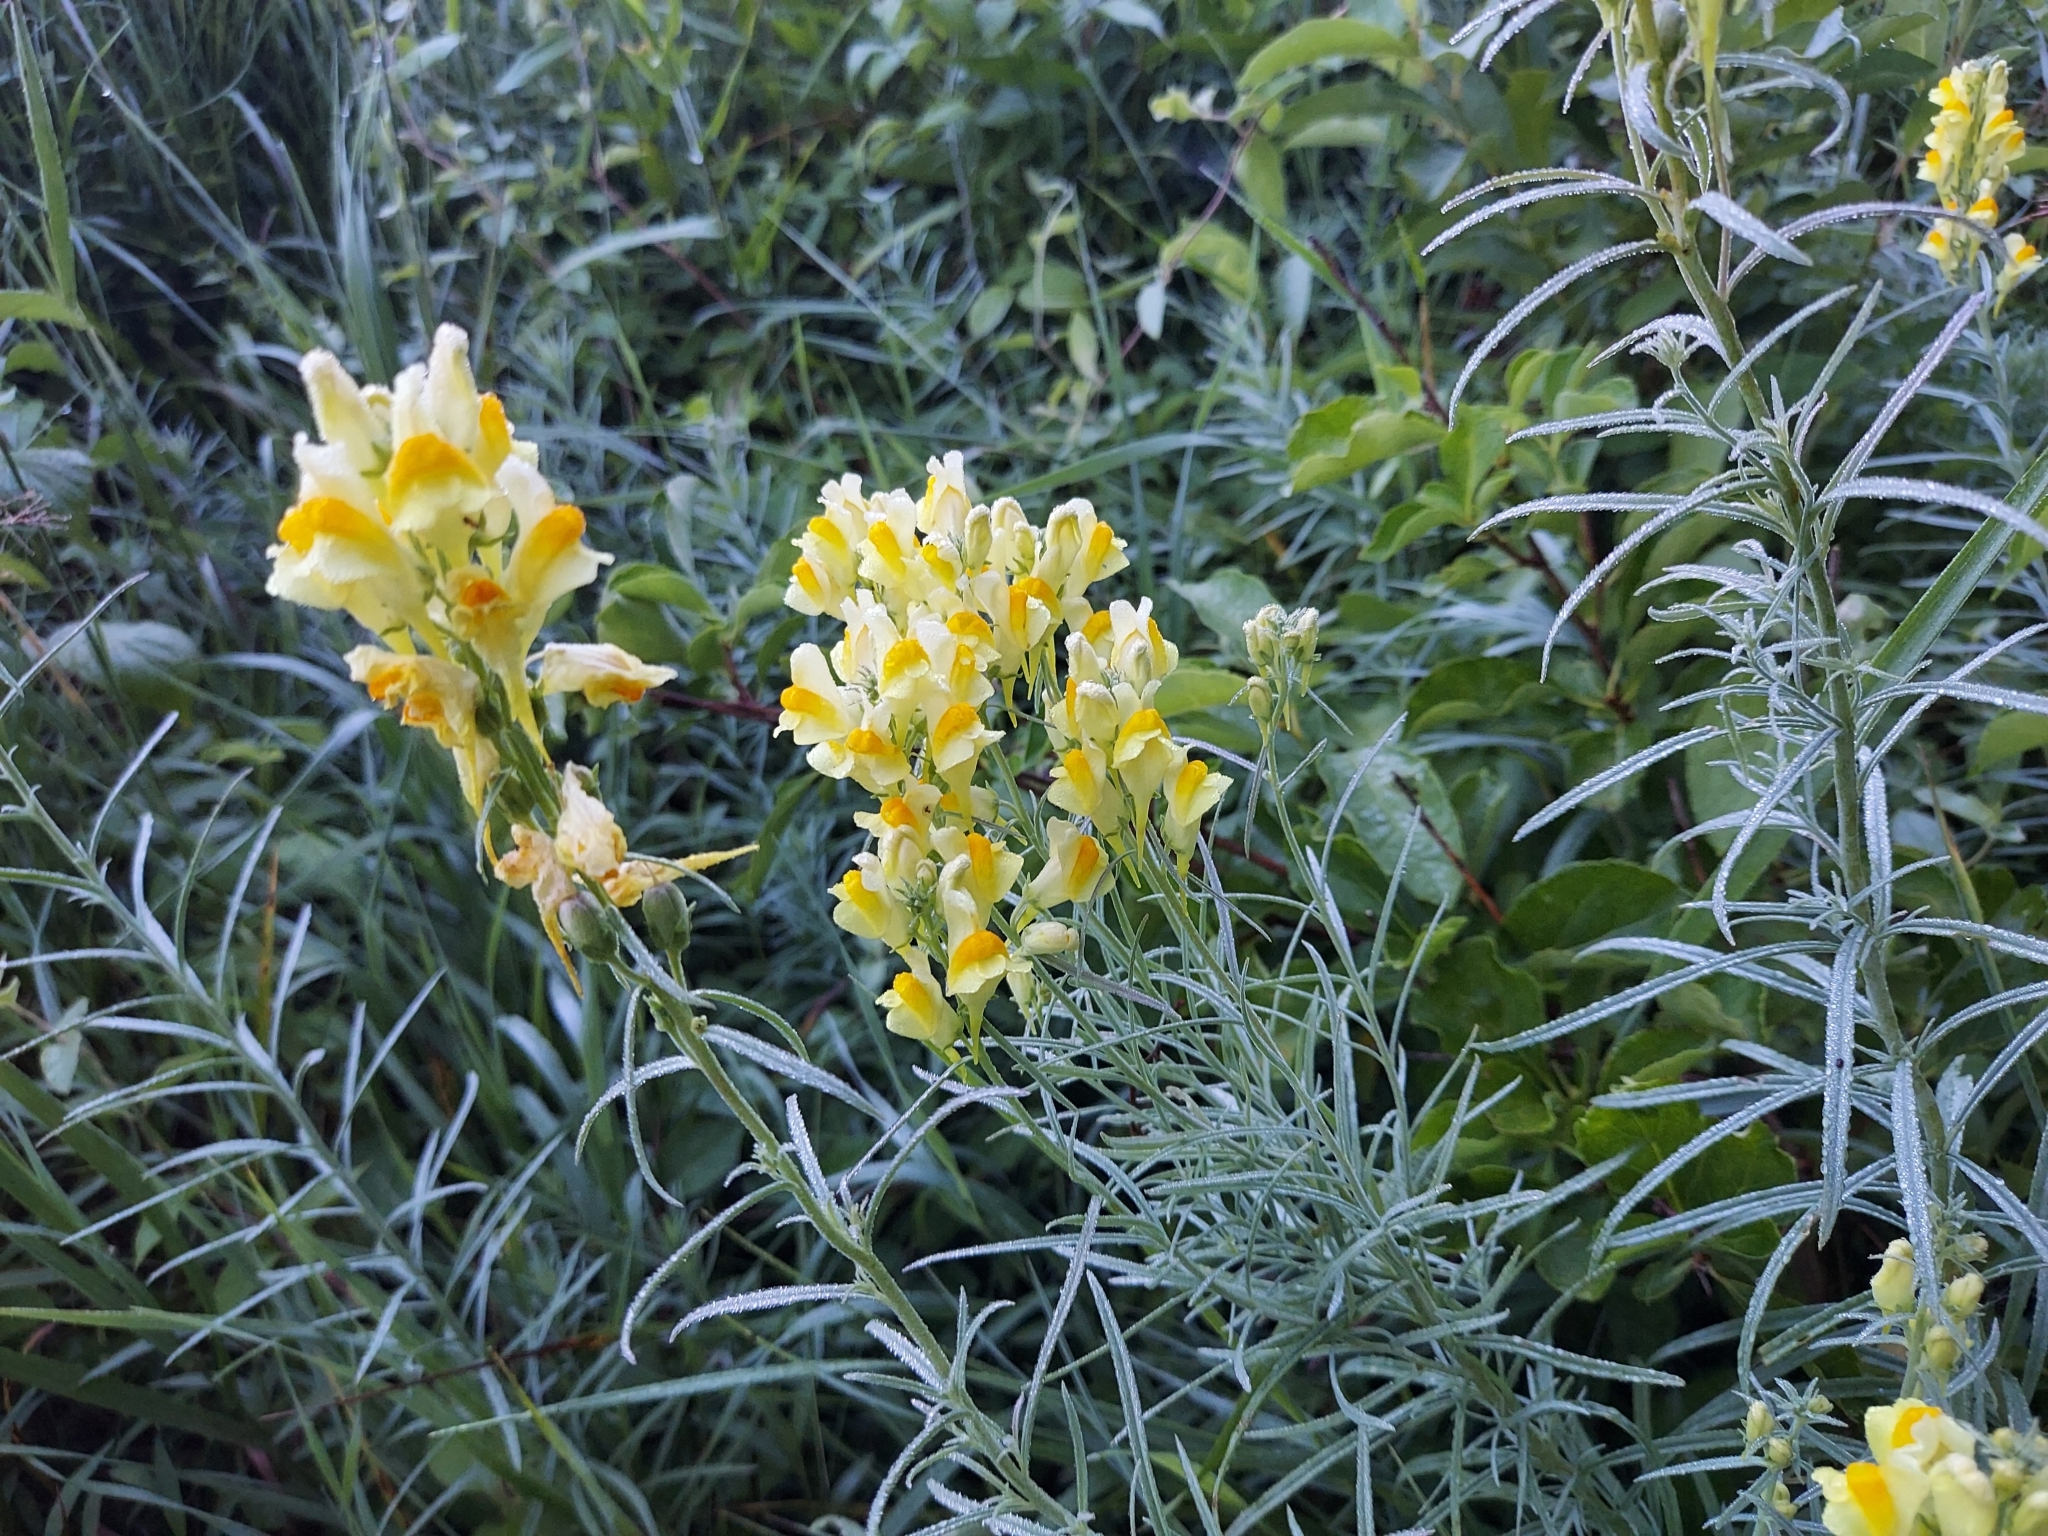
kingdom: Plantae
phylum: Tracheophyta
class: Magnoliopsida
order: Lamiales
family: Plantaginaceae
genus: Linaria
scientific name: Linaria vulgaris
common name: Butter and eggs
